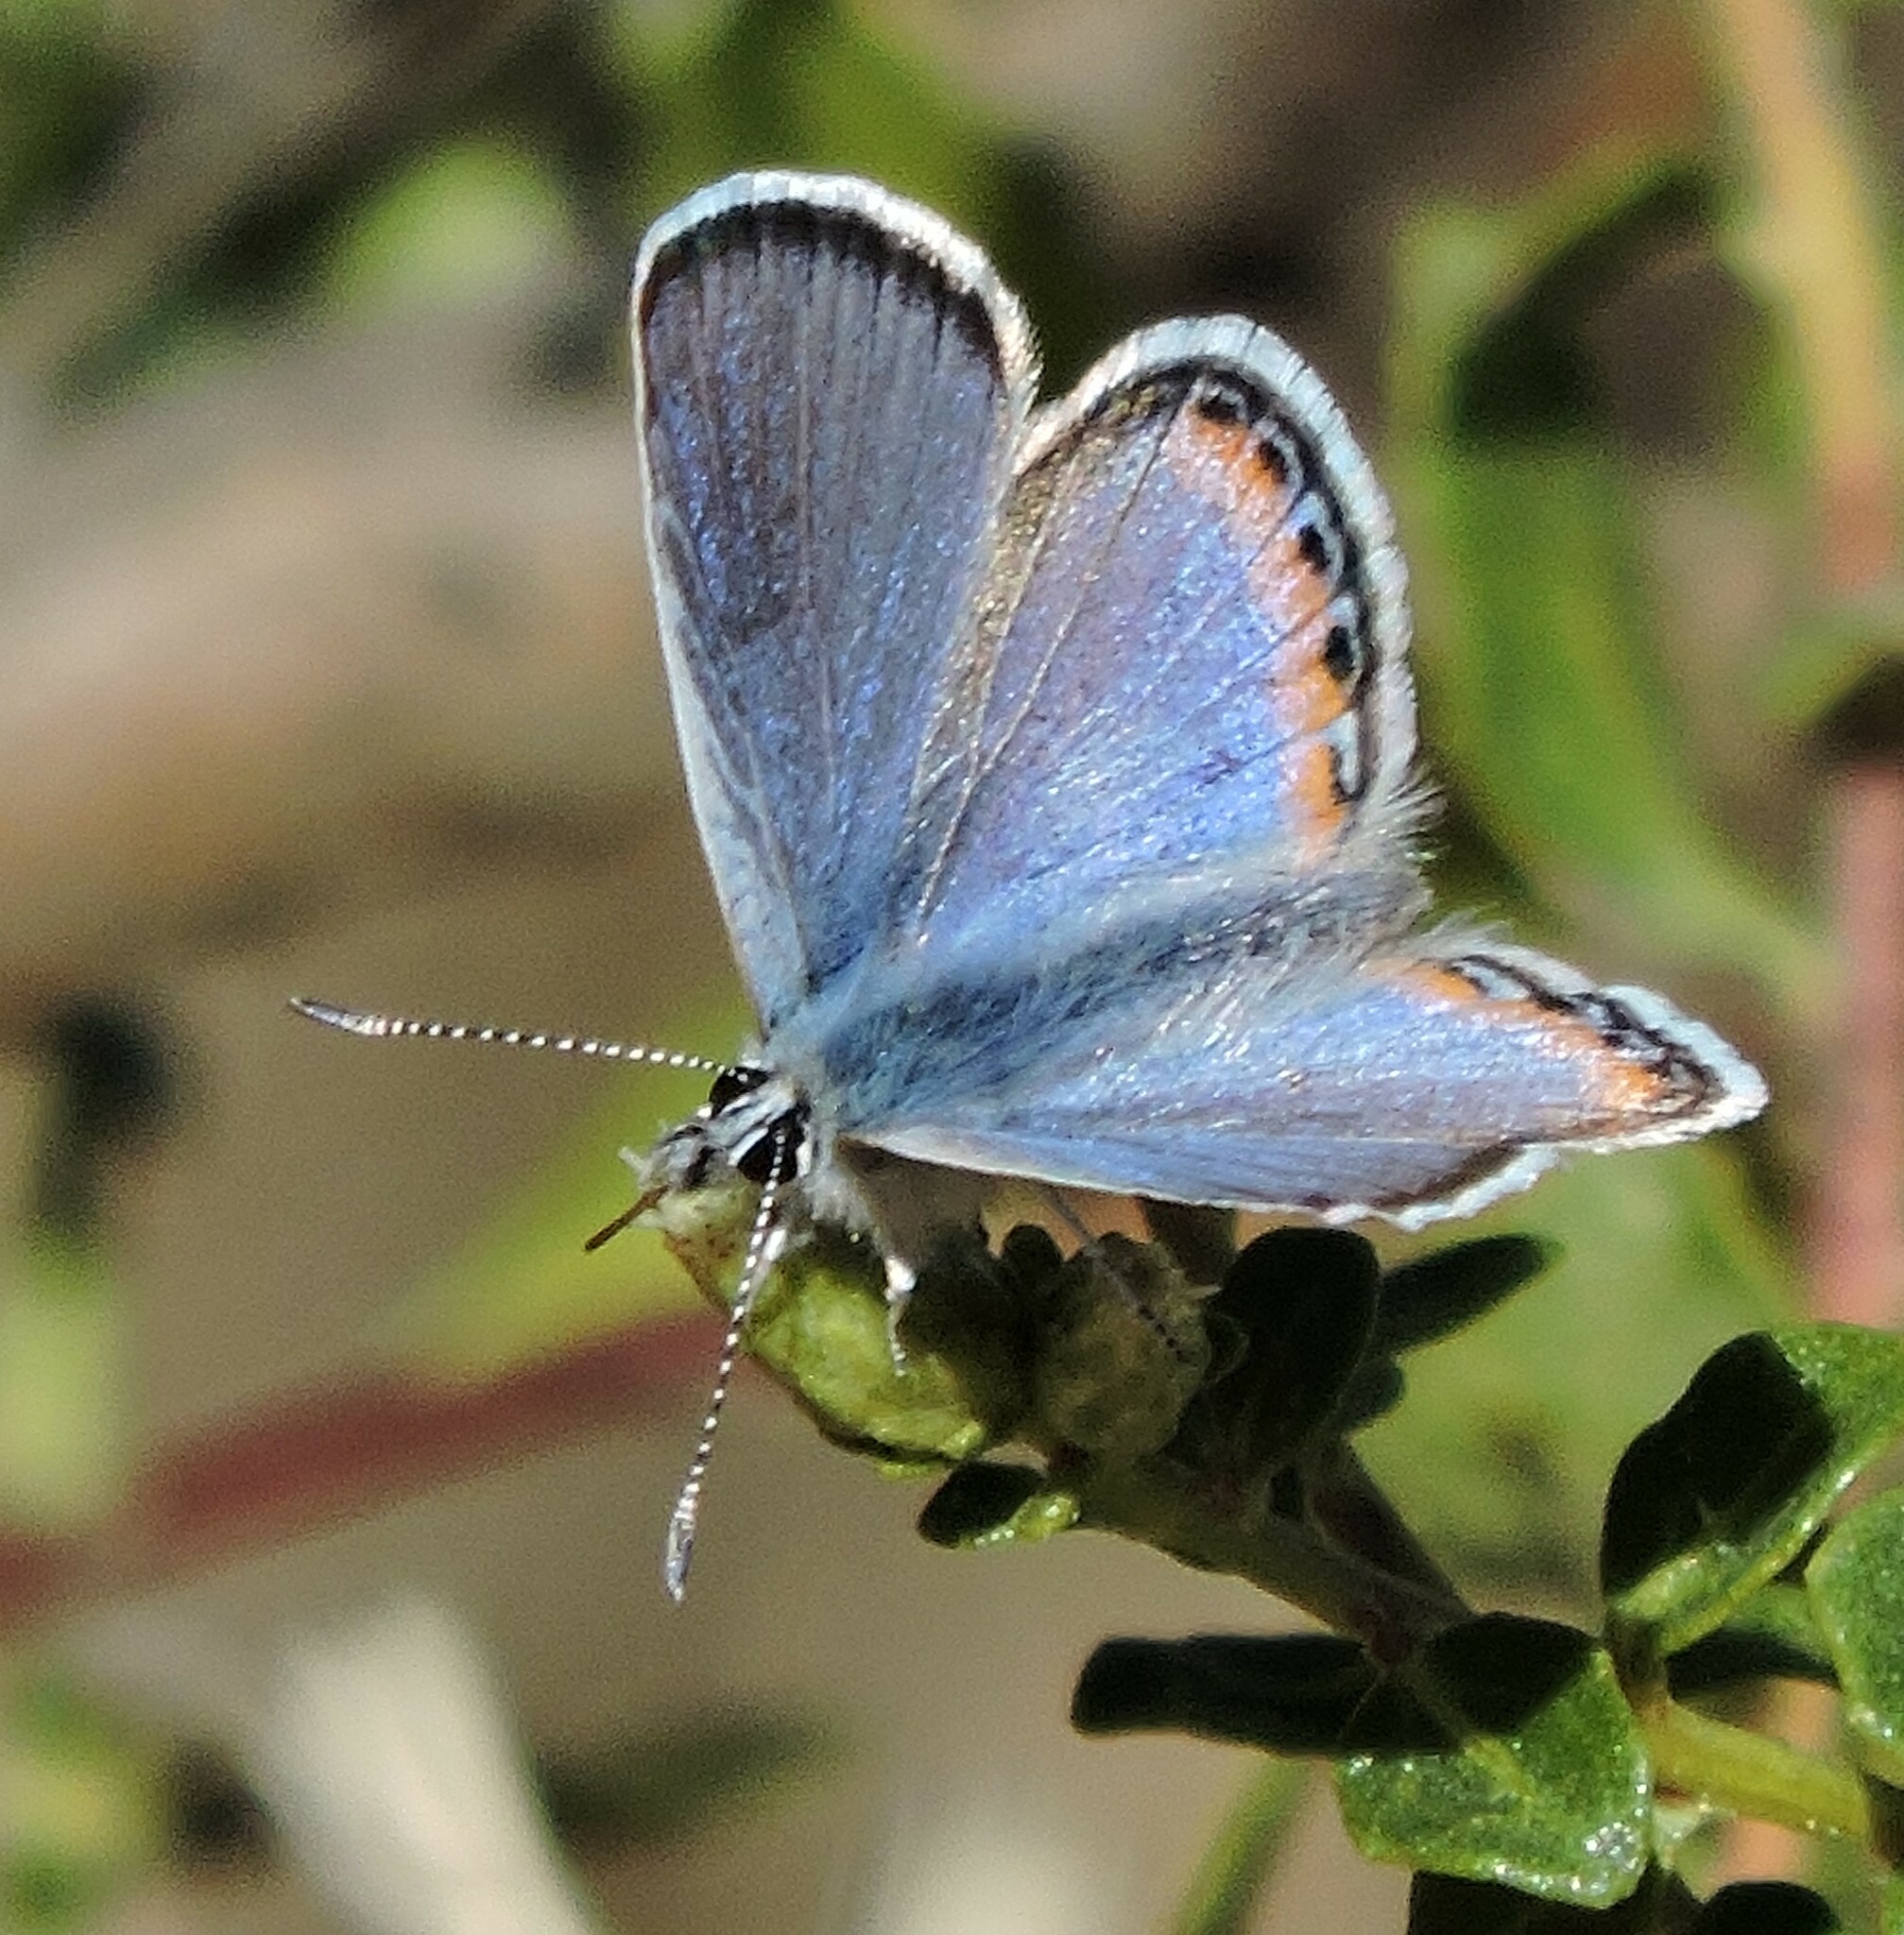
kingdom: Animalia
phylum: Arthropoda
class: Insecta
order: Lepidoptera
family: Lycaenidae
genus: Icaricia
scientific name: Icaricia acmon
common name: Acmon blue
